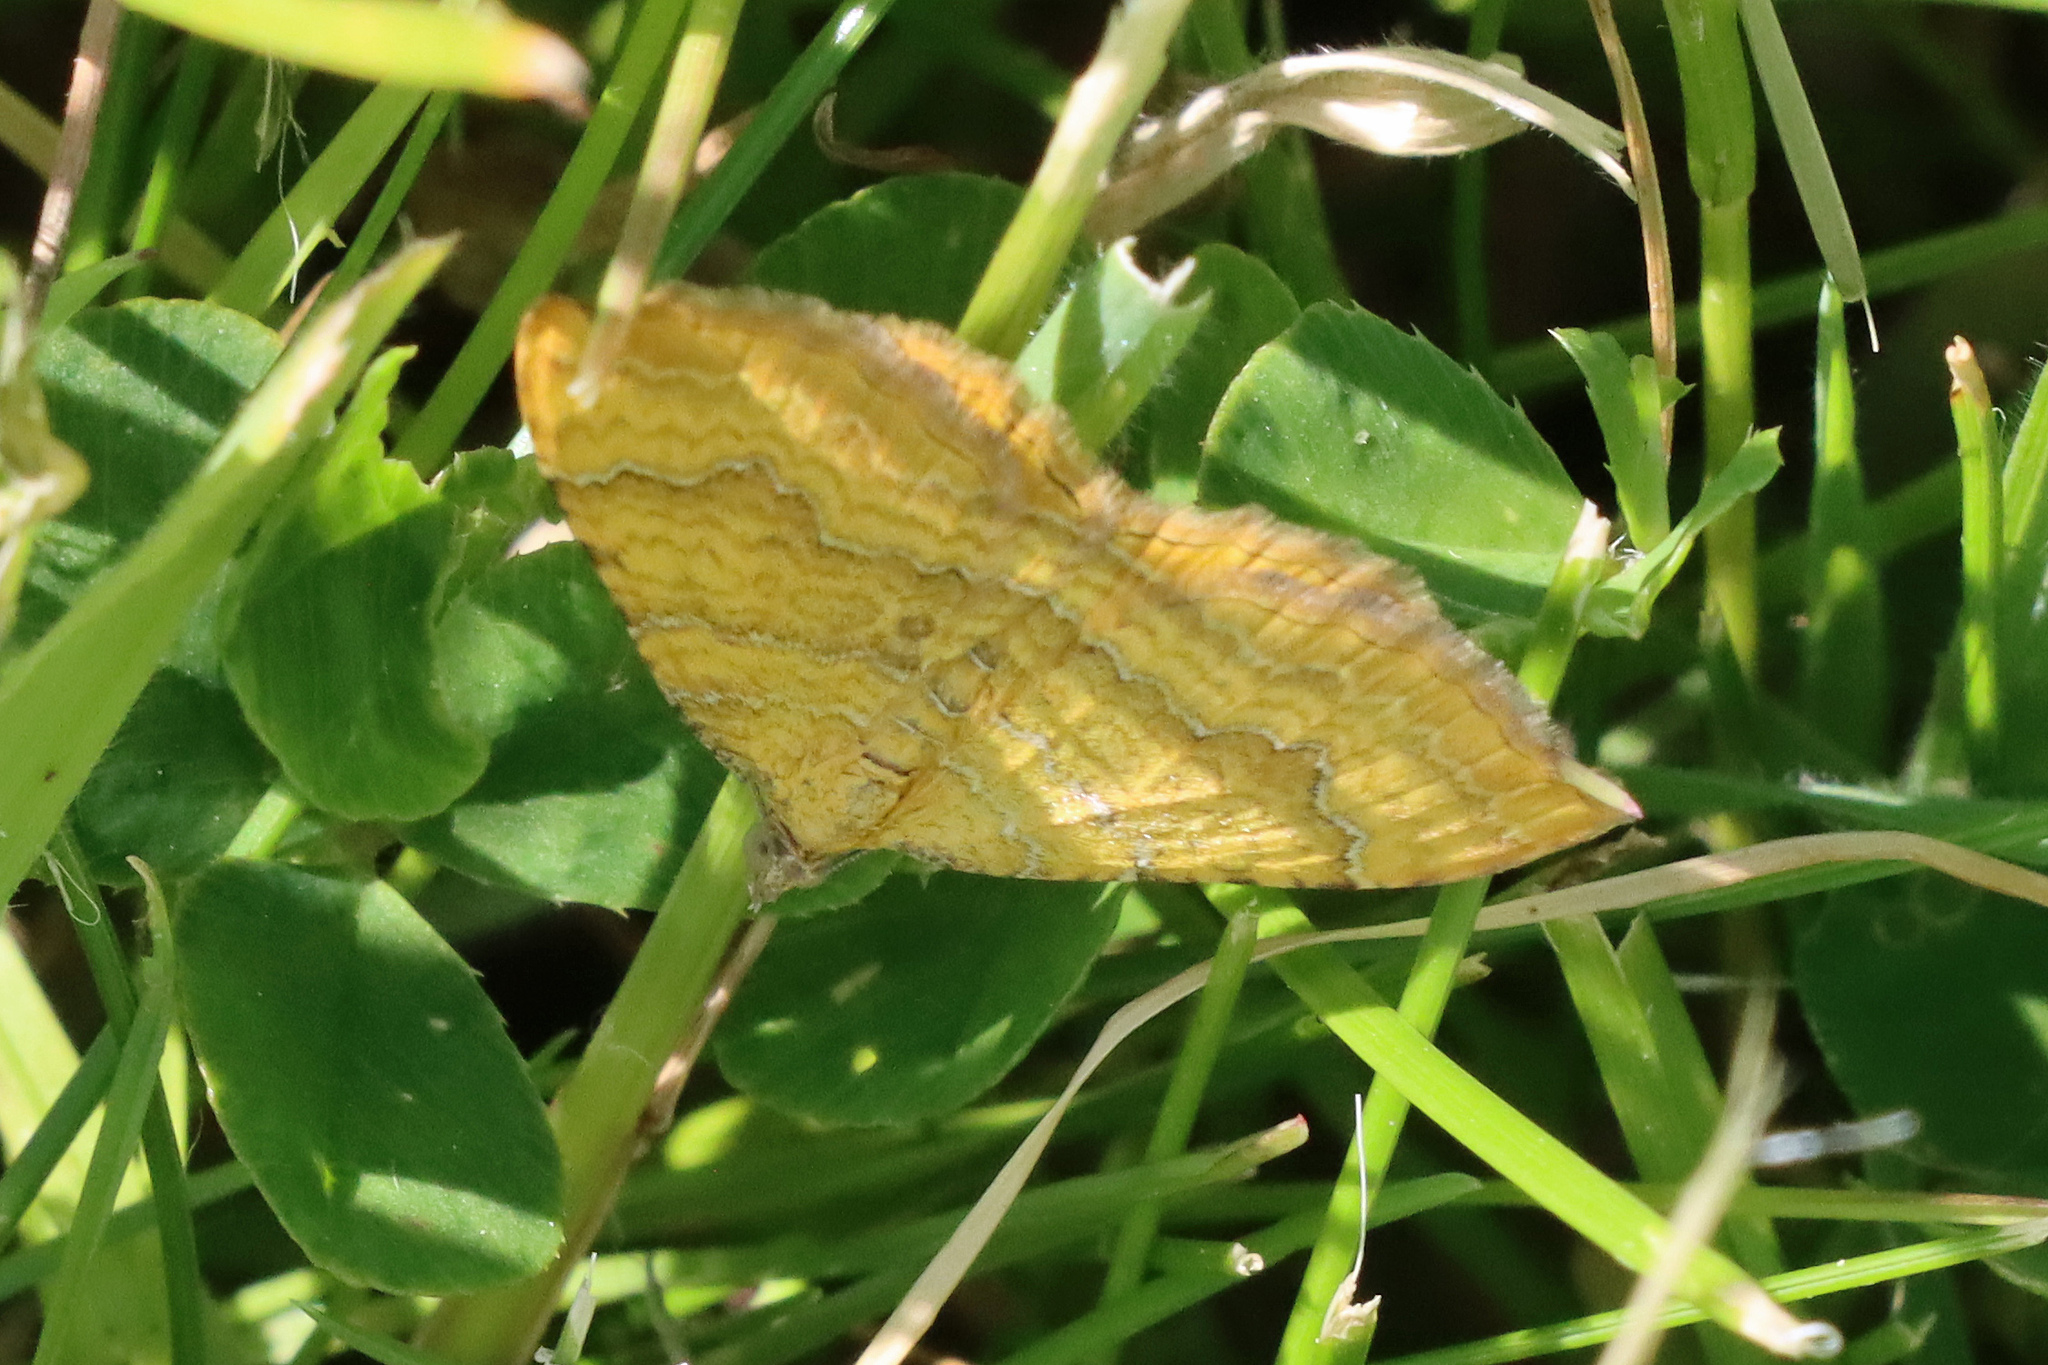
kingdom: Animalia
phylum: Arthropoda
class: Insecta
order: Lepidoptera
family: Geometridae
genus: Camptogramma
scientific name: Camptogramma bilineata
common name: Yellow shell
